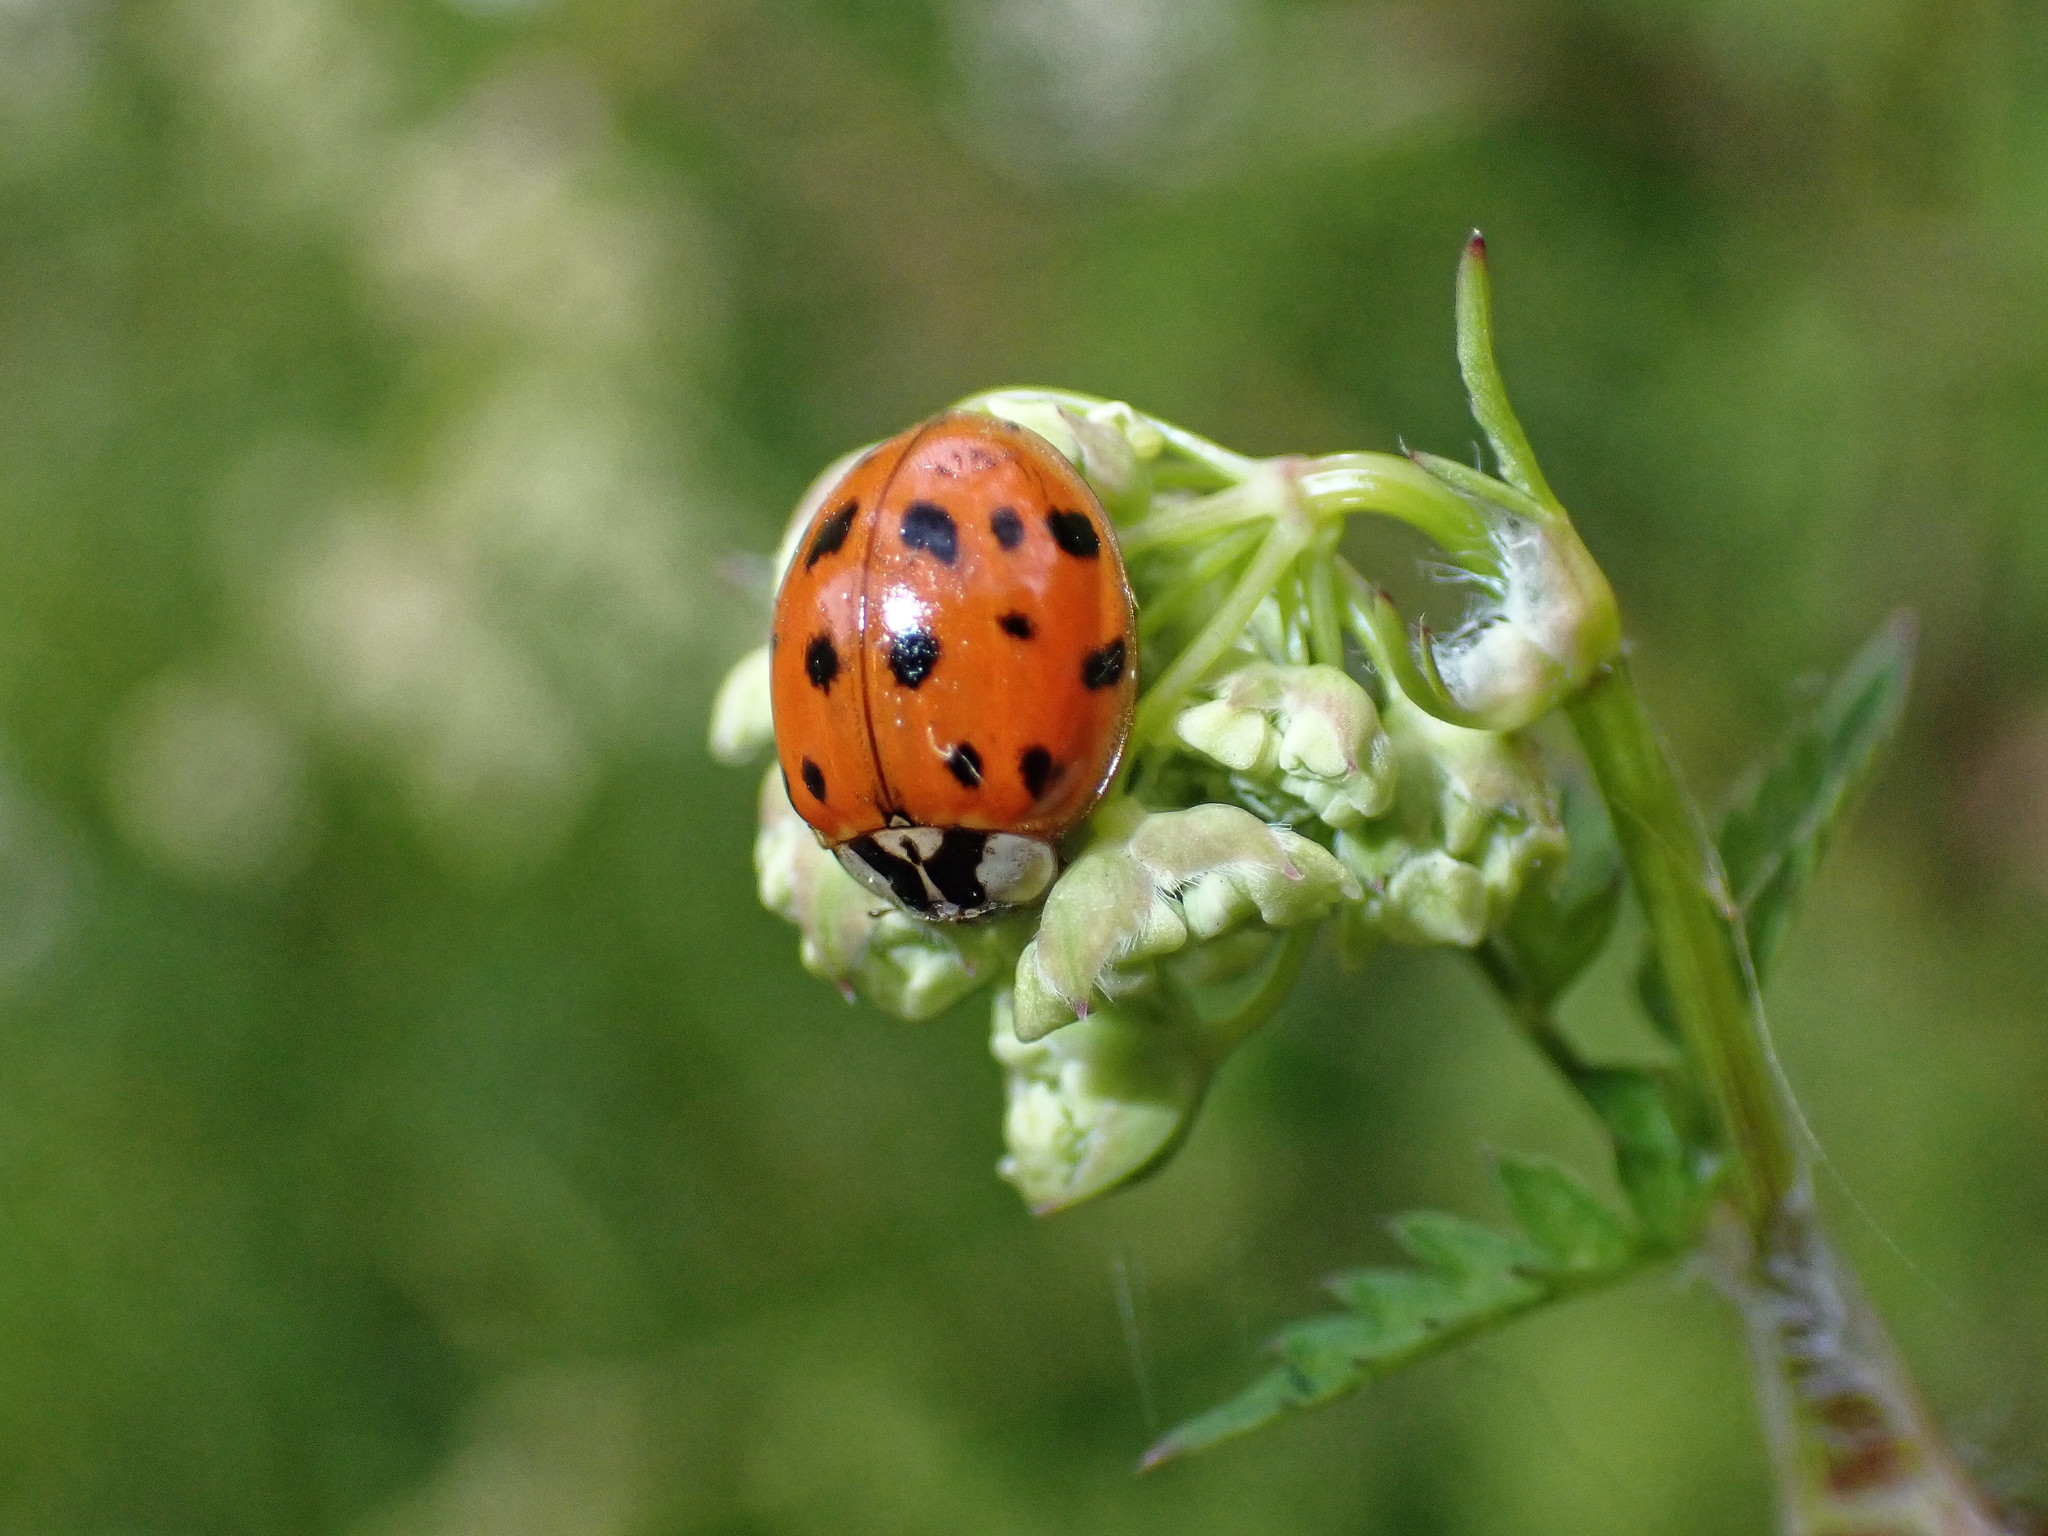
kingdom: Animalia
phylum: Arthropoda
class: Insecta
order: Coleoptera
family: Coccinellidae
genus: Harmonia
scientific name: Harmonia axyridis
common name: Harlequin ladybird
